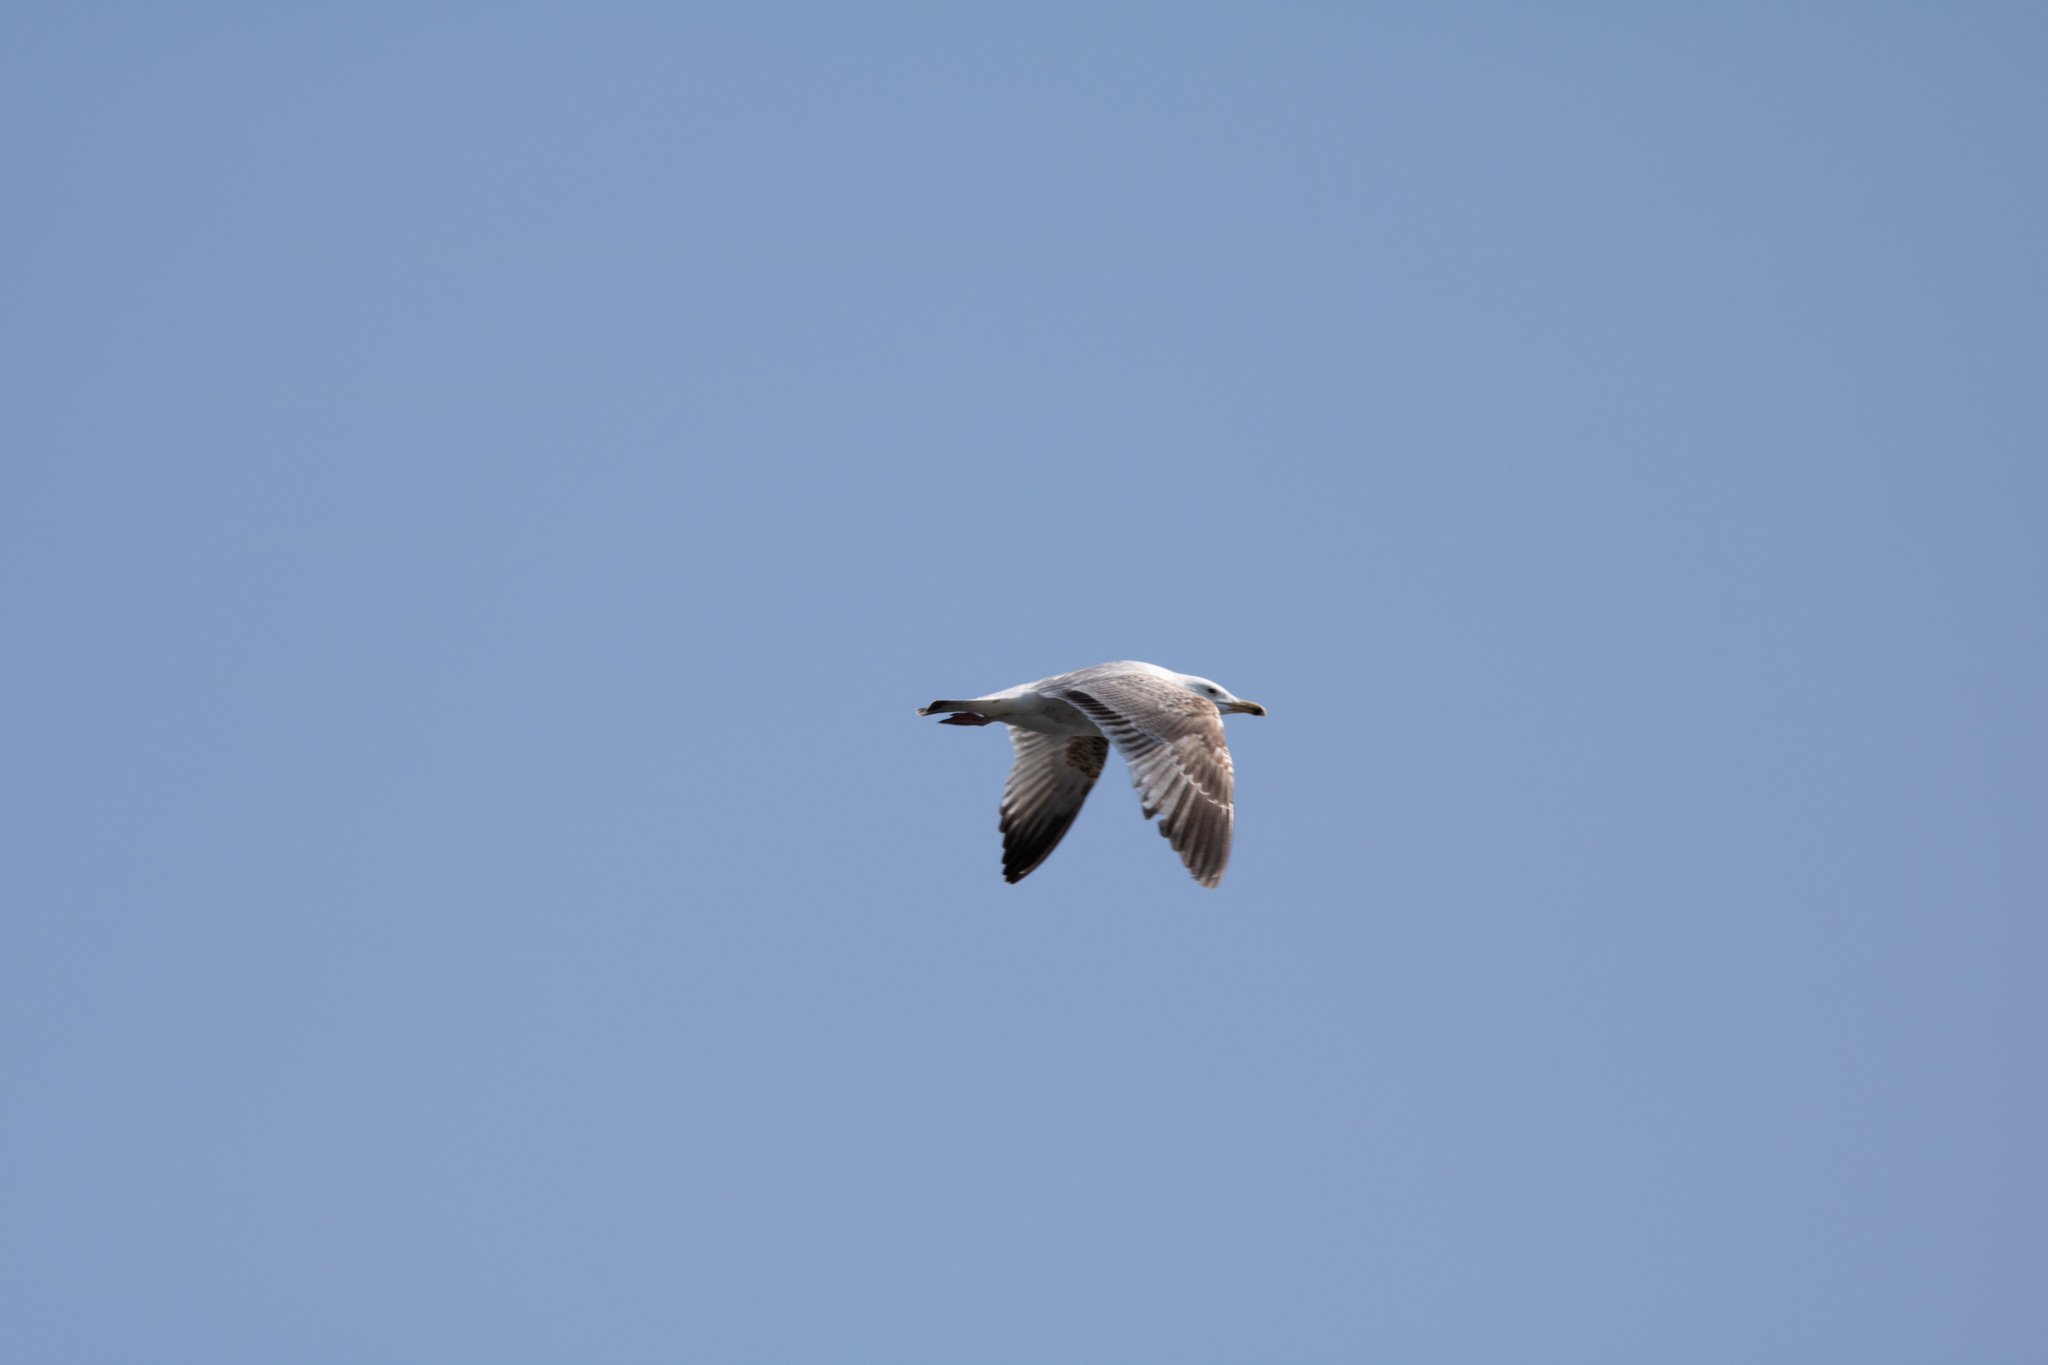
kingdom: Animalia
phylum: Chordata
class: Aves
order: Charadriiformes
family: Laridae
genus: Larus
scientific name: Larus cachinnans
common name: Caspian gull
